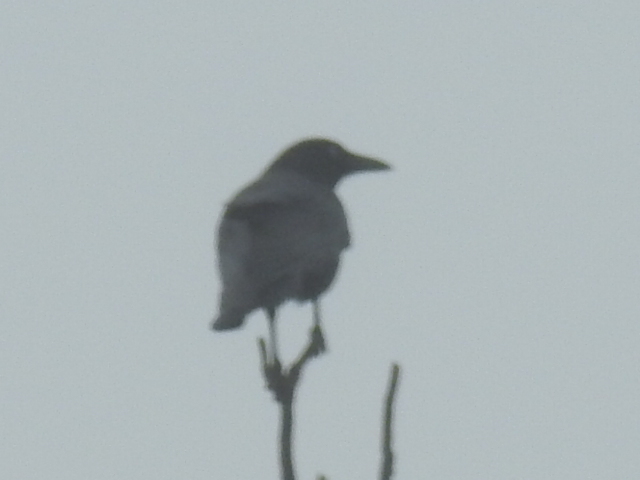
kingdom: Animalia
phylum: Chordata
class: Aves
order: Passeriformes
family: Corvidae
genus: Corvus
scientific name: Corvus brachyrhynchos
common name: American crow
